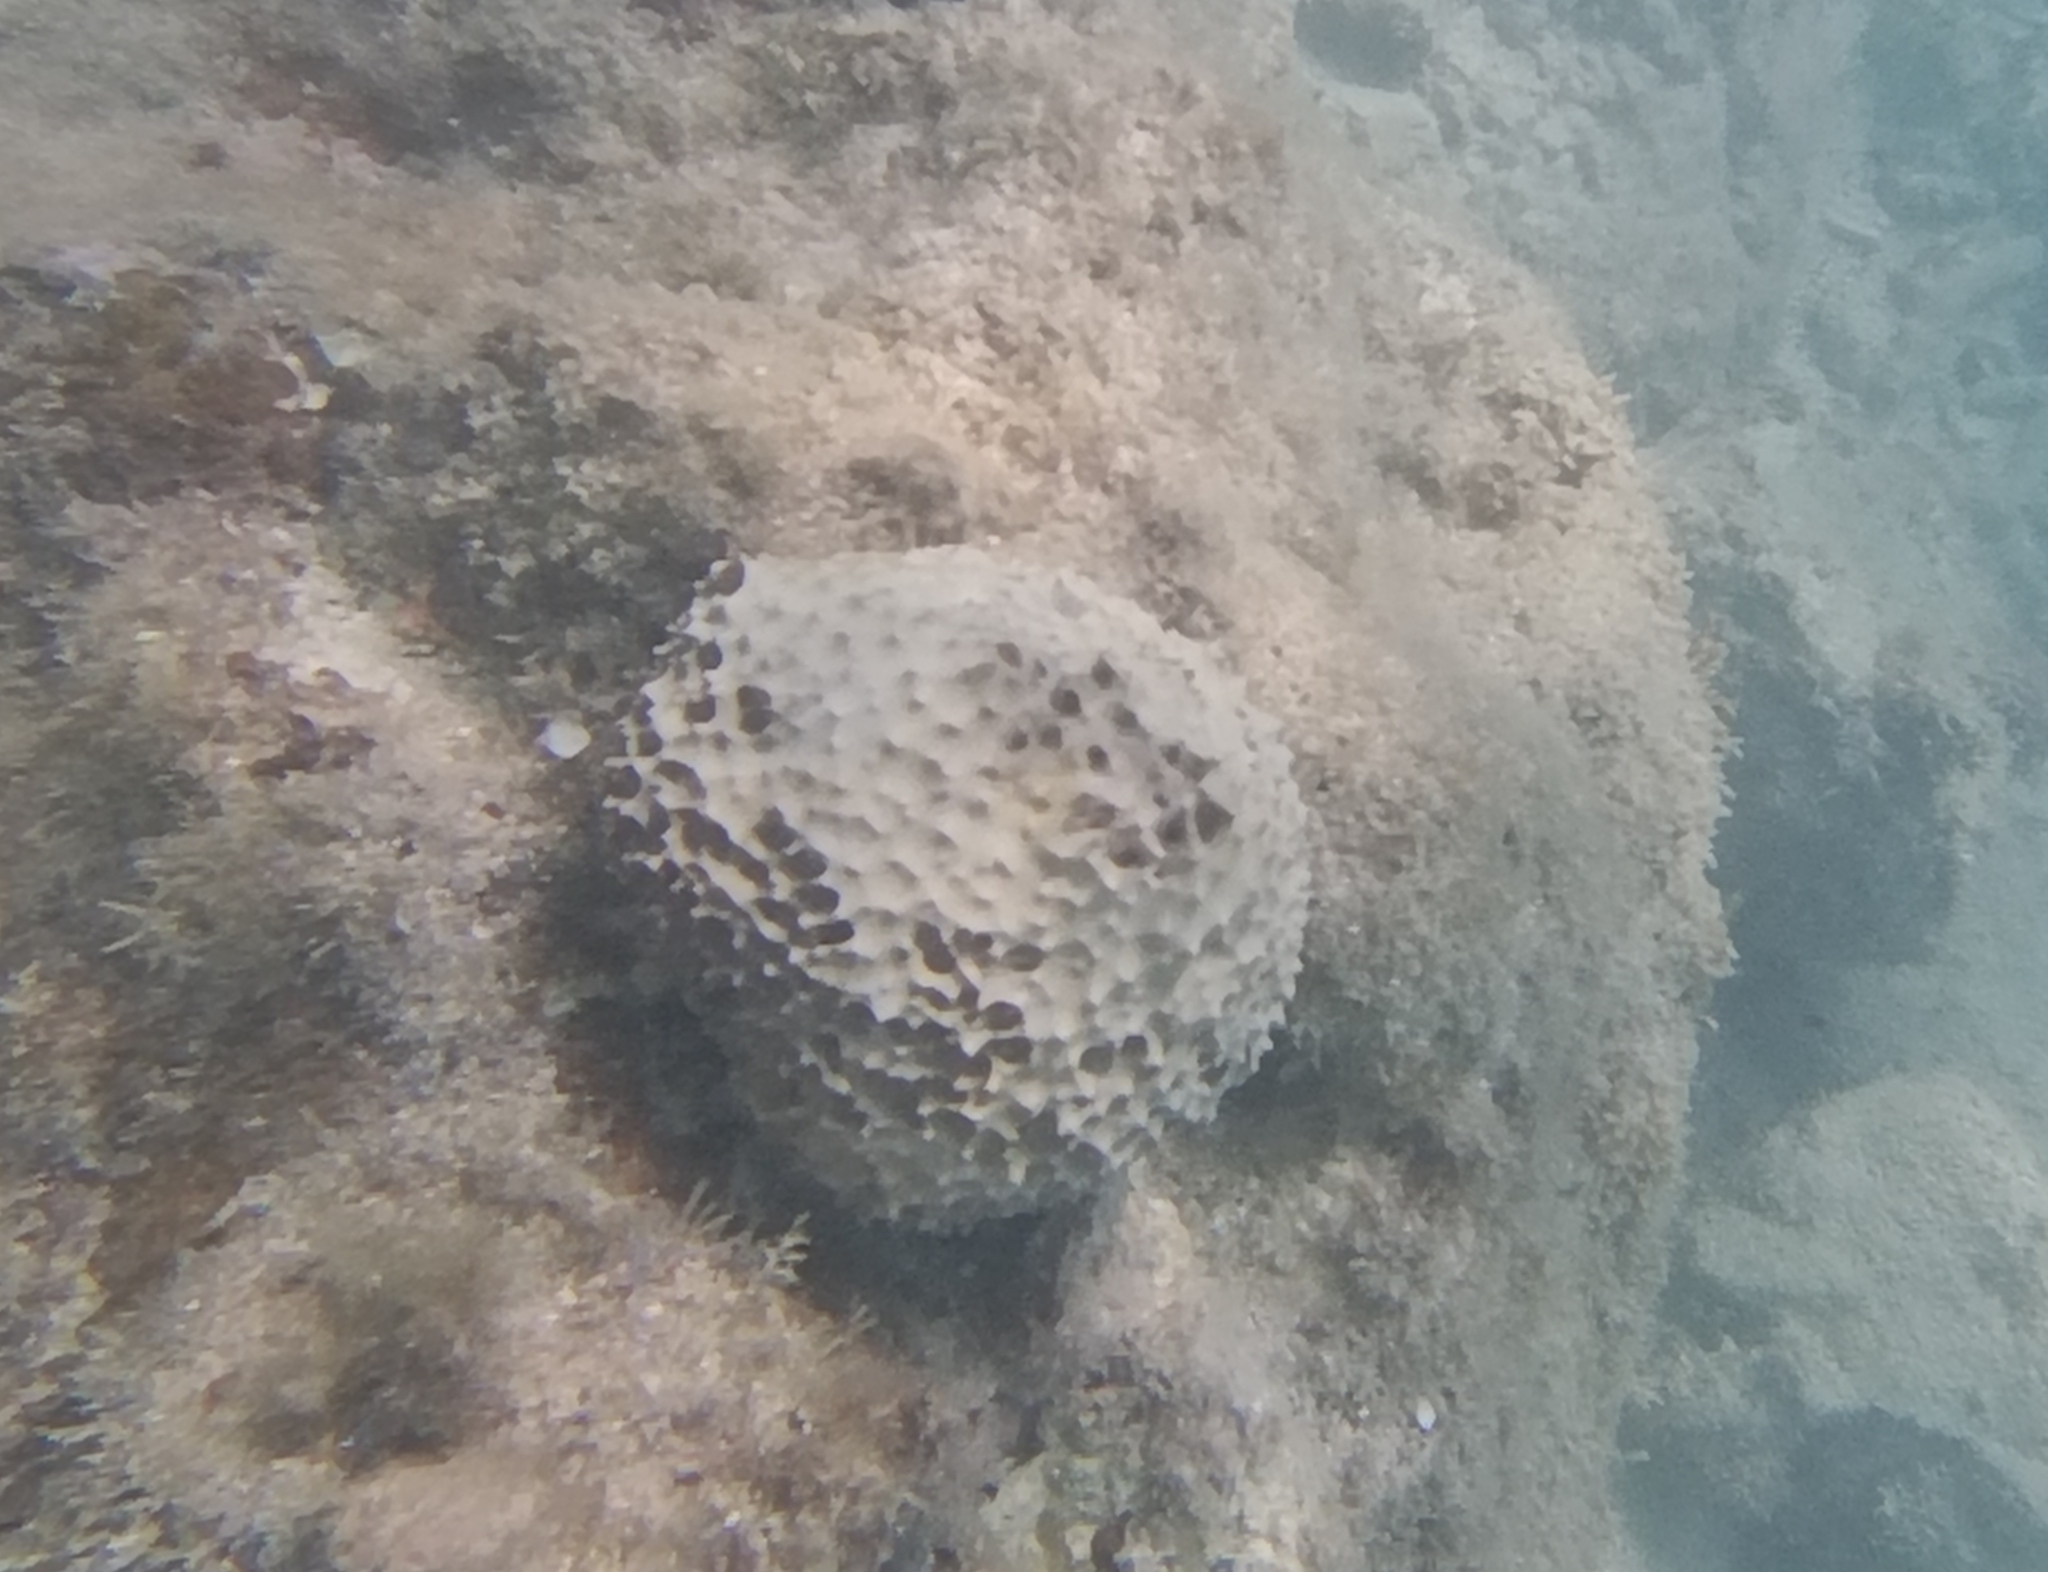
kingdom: Animalia
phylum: Porifera
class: Demospongiae
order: Dictyoceratida
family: Irciniidae
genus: Ircinia
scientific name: Ircinia felix
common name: Stinker sponge
